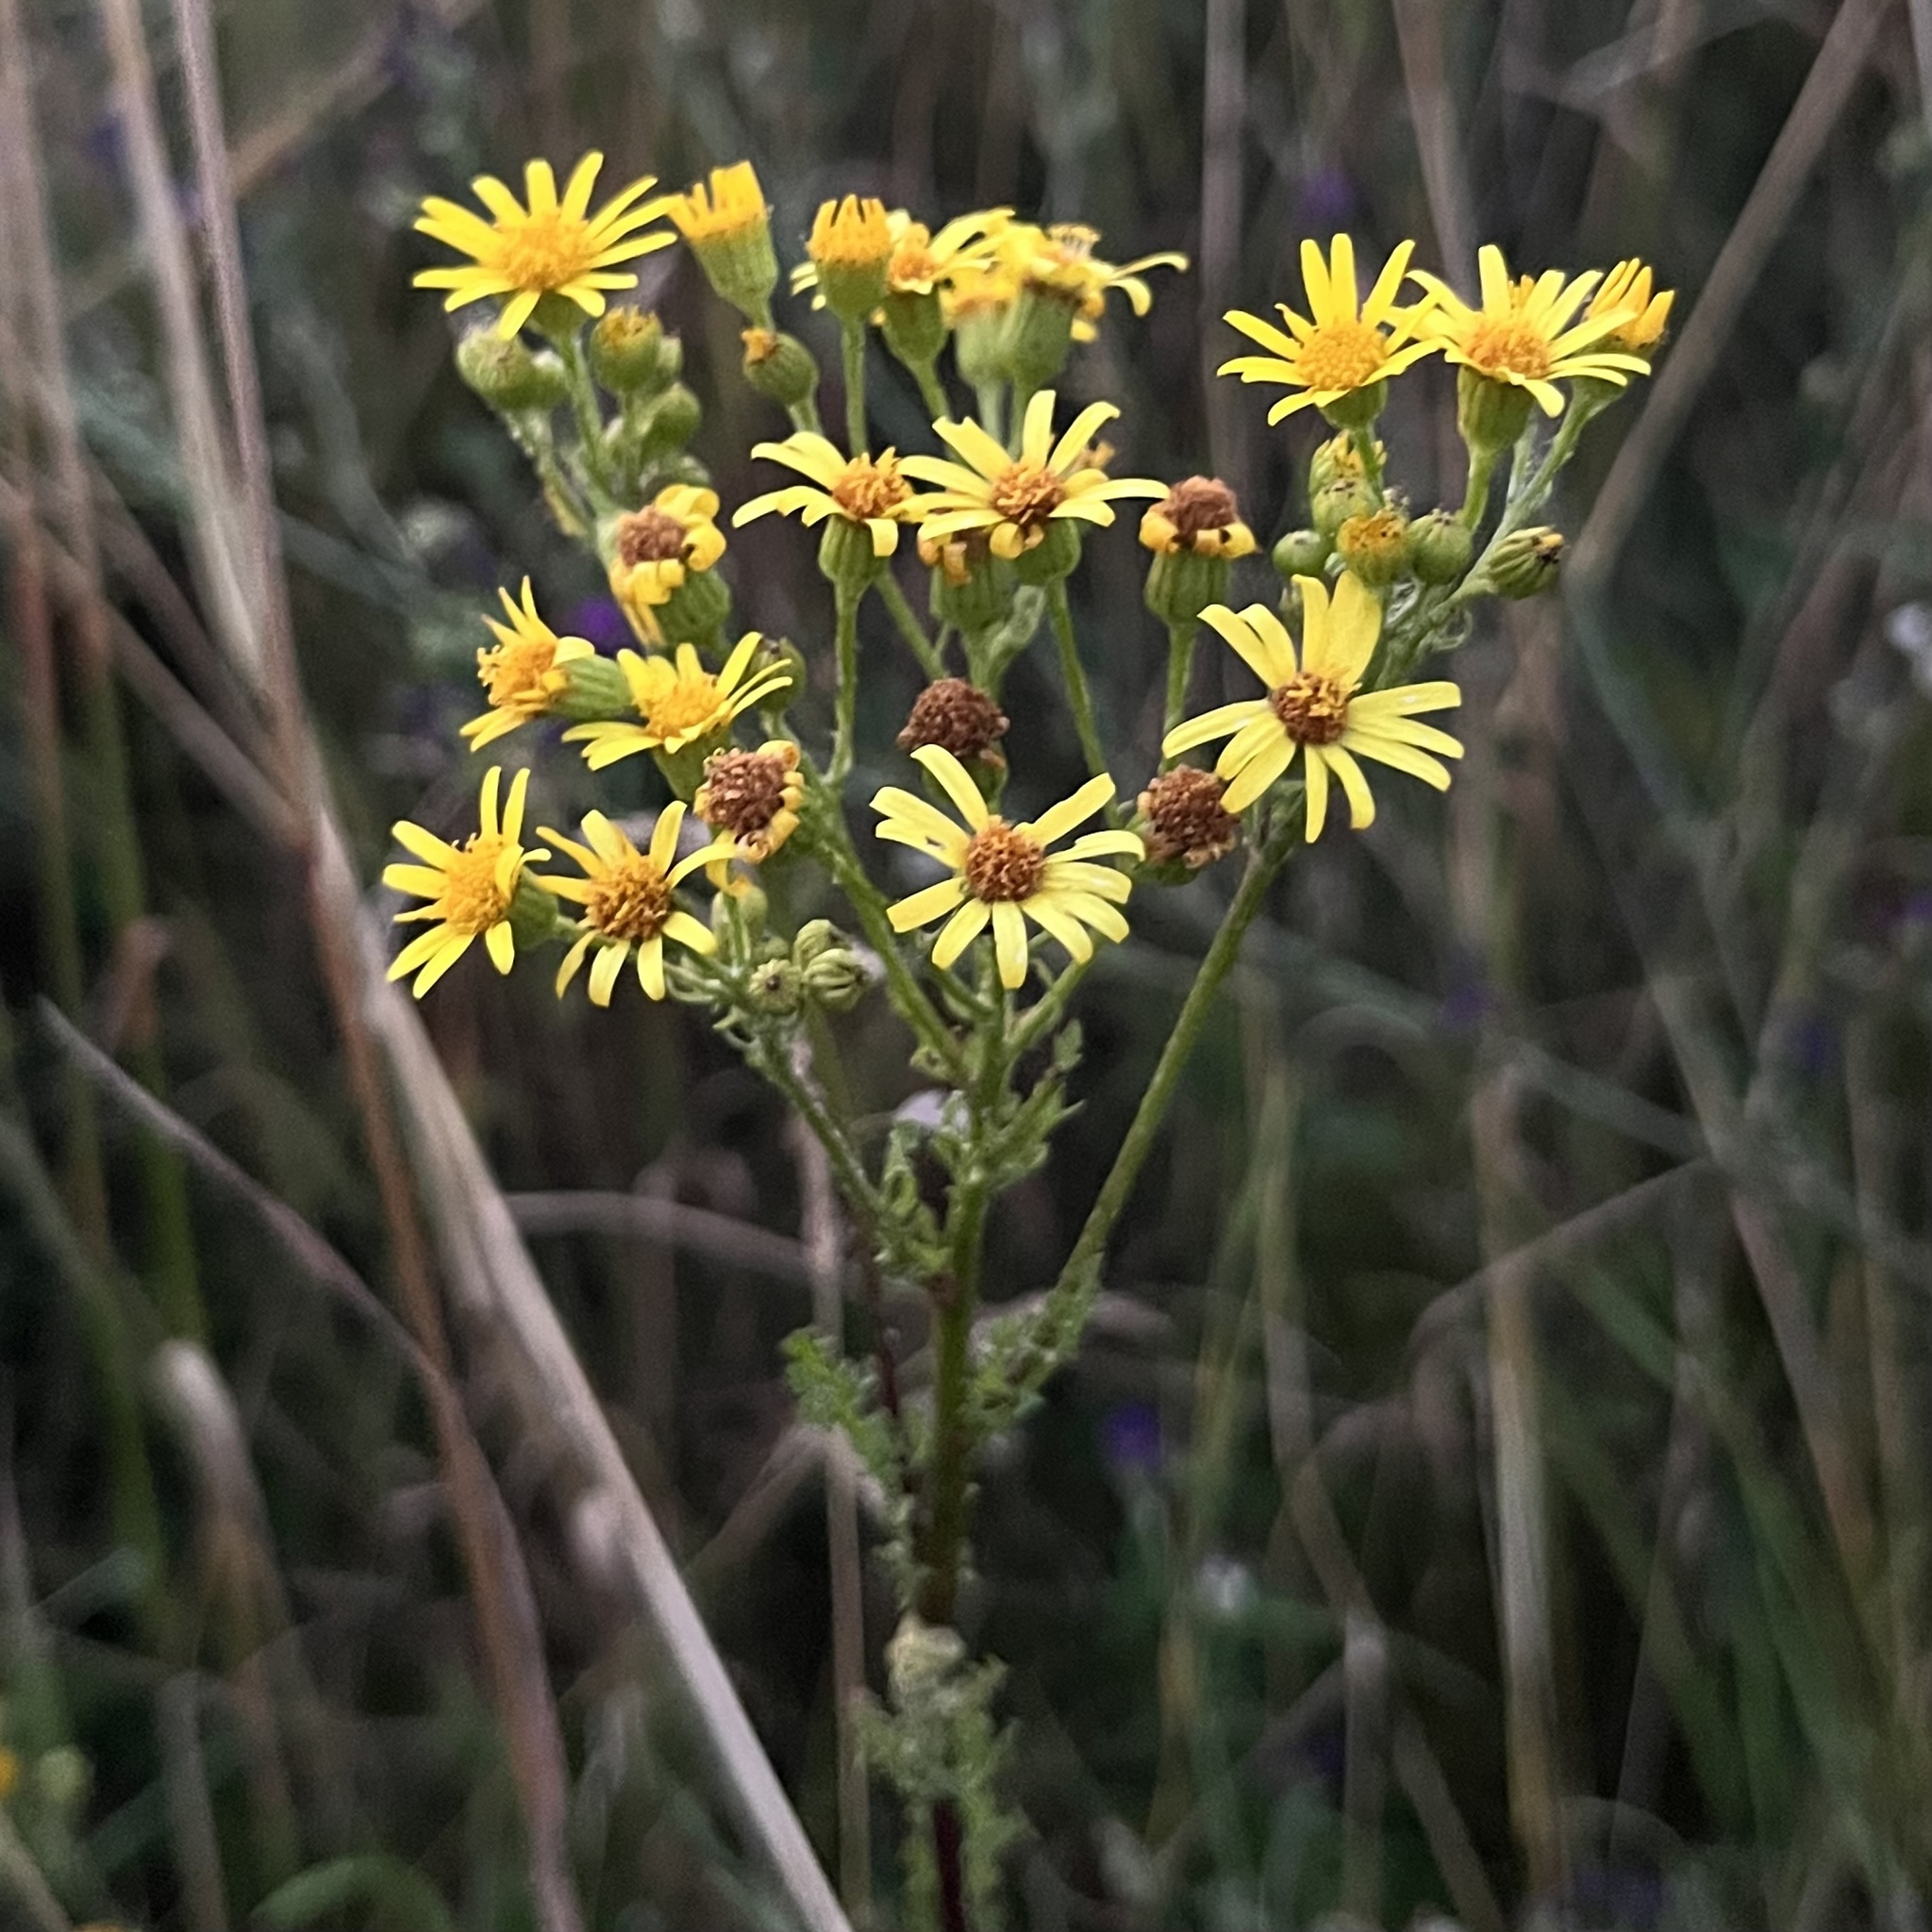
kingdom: Plantae
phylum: Tracheophyta
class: Magnoliopsida
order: Asterales
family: Asteraceae
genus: Jacobaea
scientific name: Jacobaea vulgaris
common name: Stinking willie
